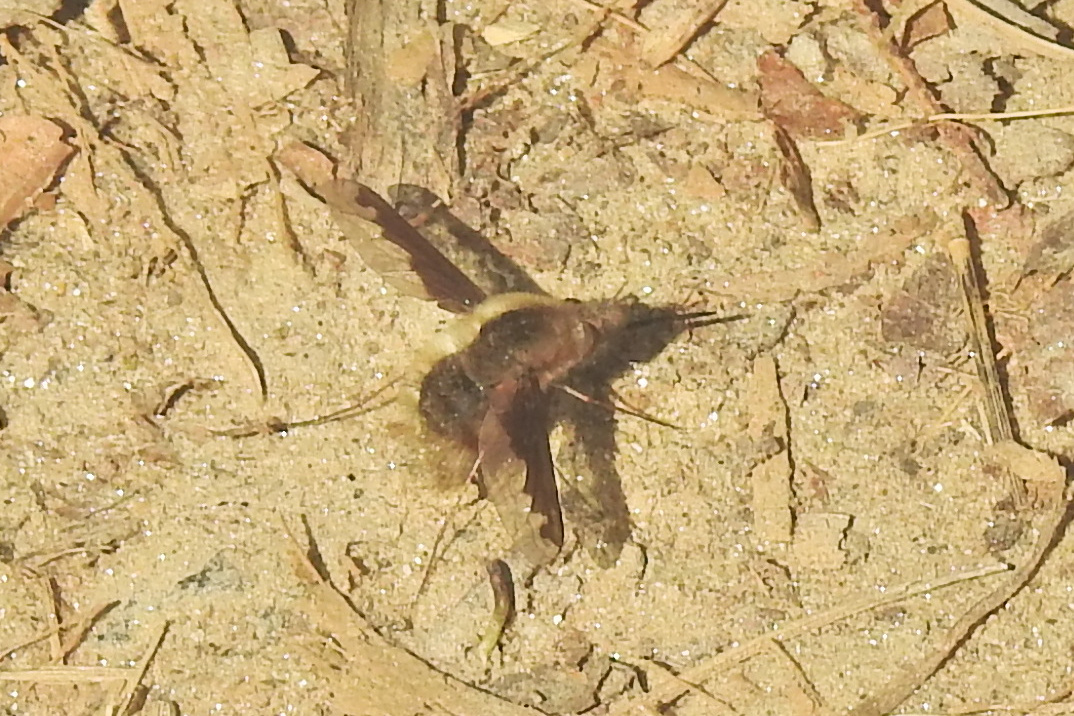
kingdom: Animalia
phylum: Arthropoda
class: Insecta
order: Diptera
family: Bombyliidae
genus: Bombylius
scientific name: Bombylius major
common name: Bee fly
